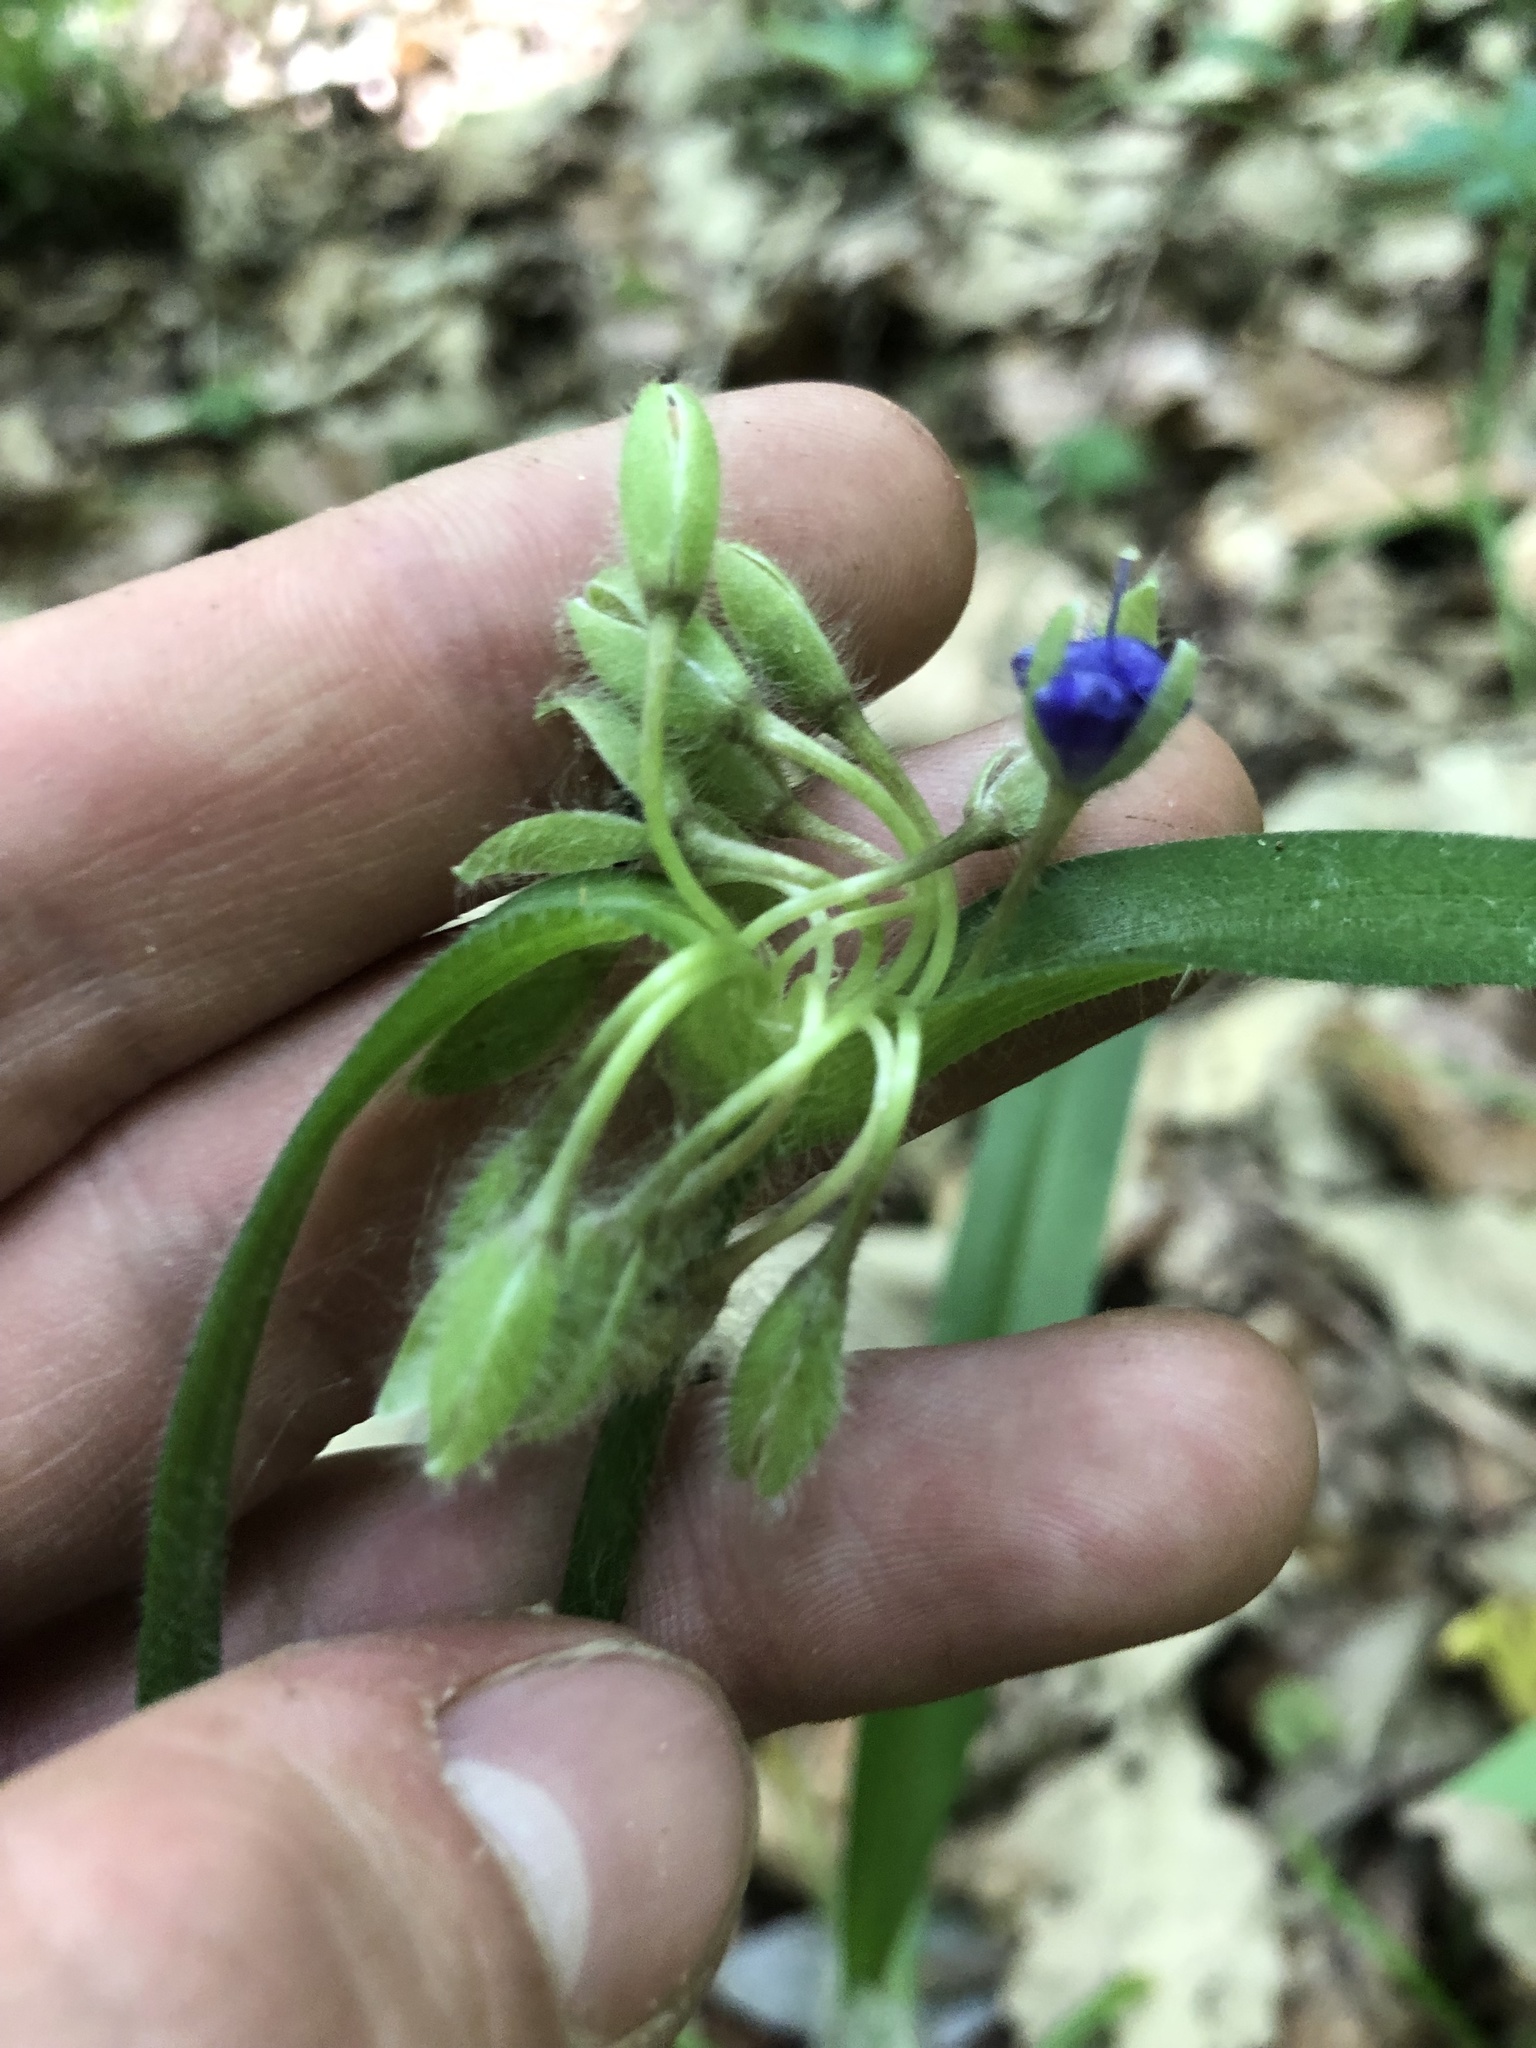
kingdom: Plantae
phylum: Tracheophyta
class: Liliopsida
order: Commelinales
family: Commelinaceae
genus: Tradescantia
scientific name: Tradescantia hirsutiflora
